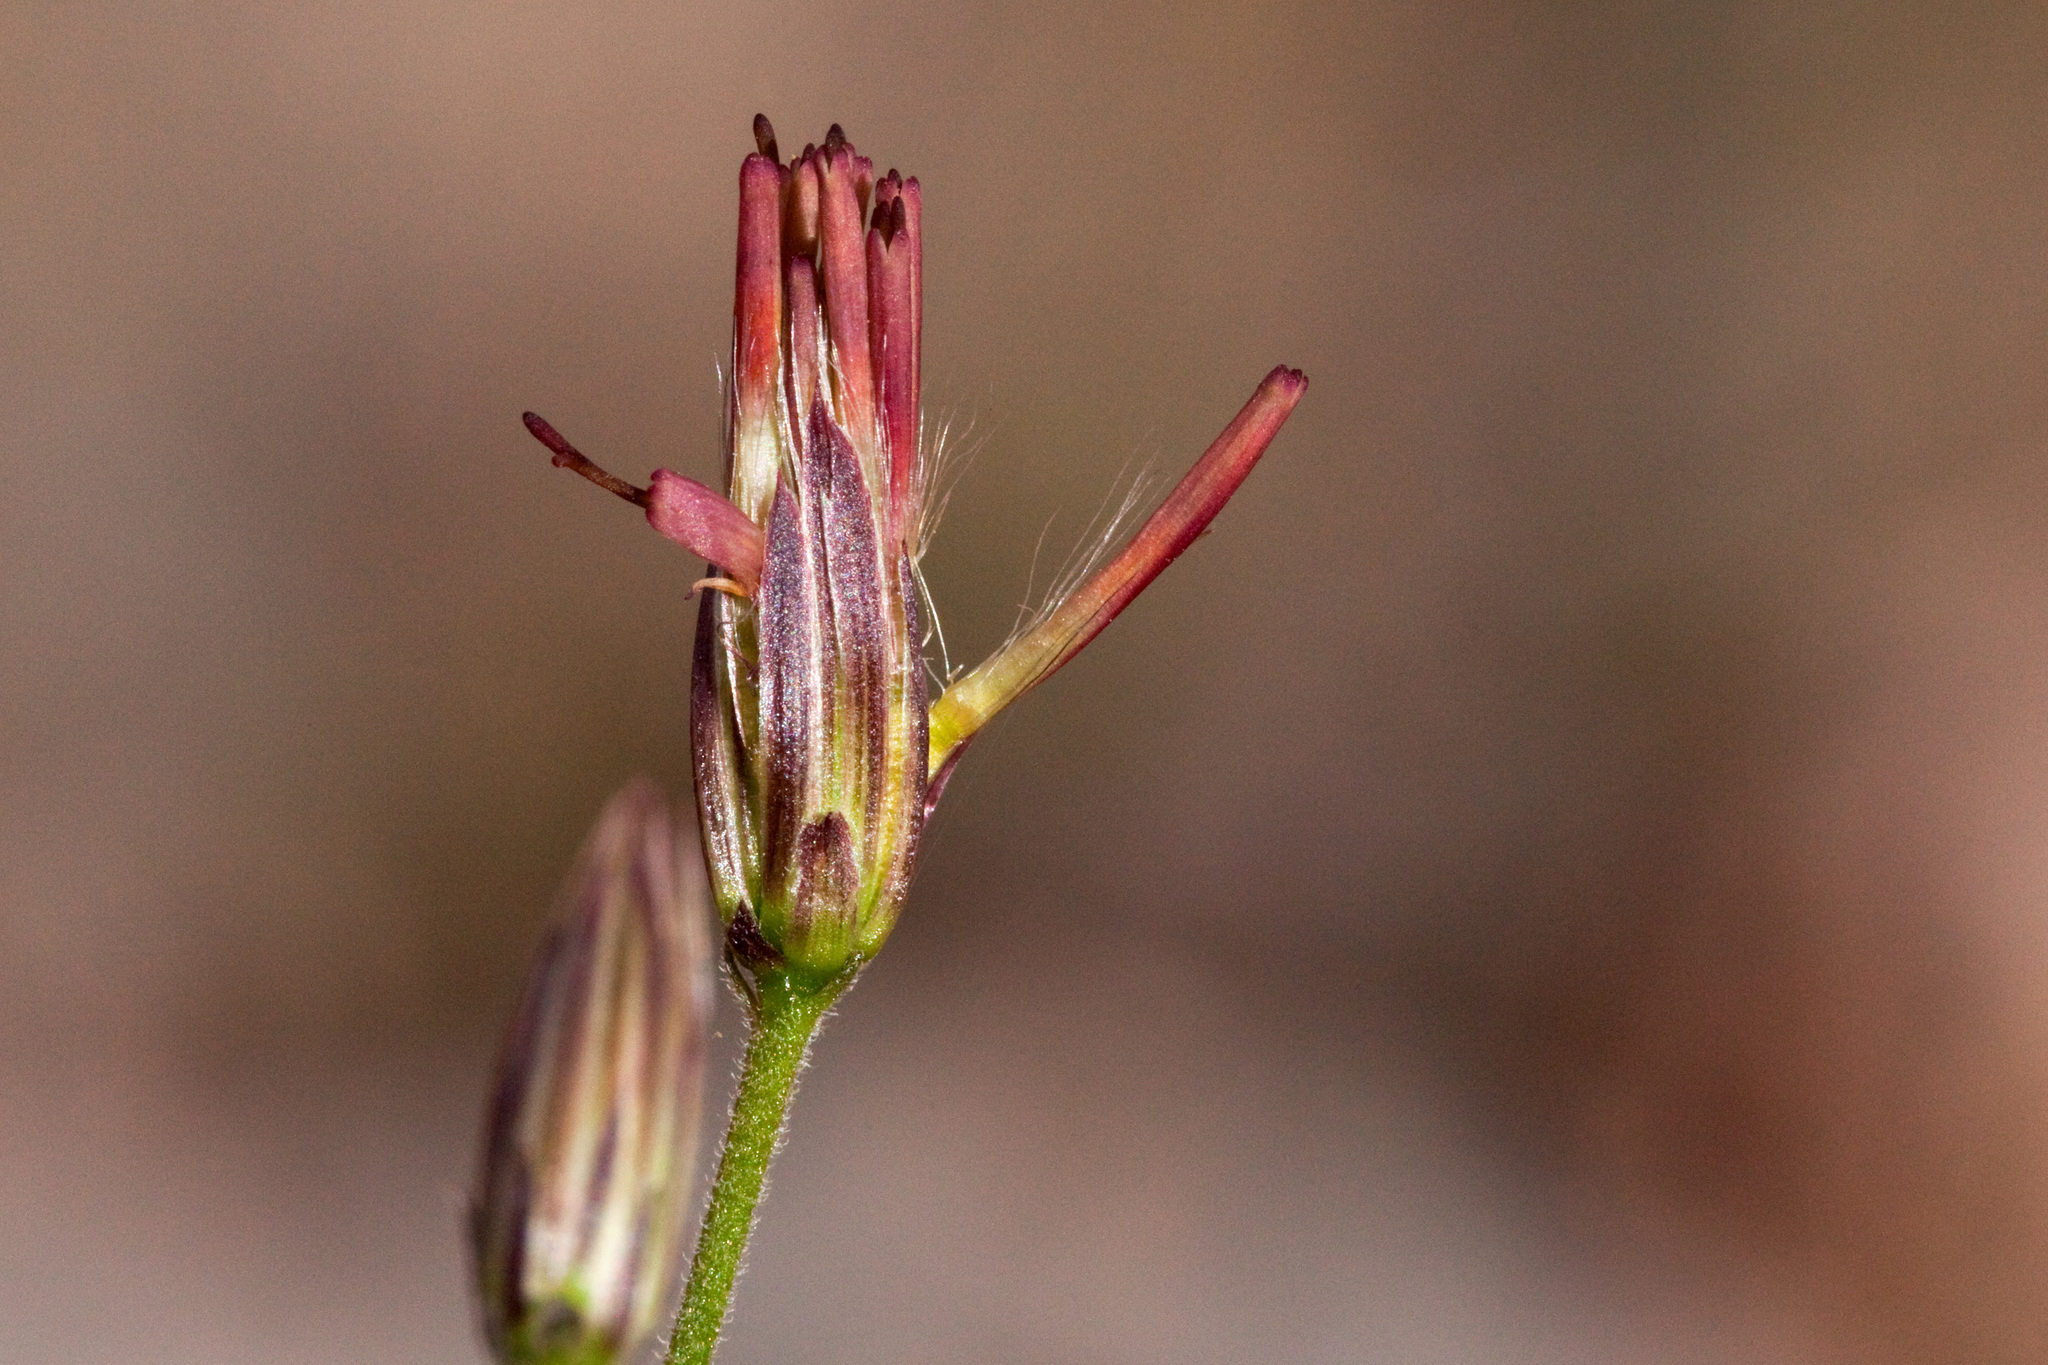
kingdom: Plantae
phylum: Tracheophyta
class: Magnoliopsida
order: Asterales
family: Asteraceae
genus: Brickellia
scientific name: Brickellia coulteri
